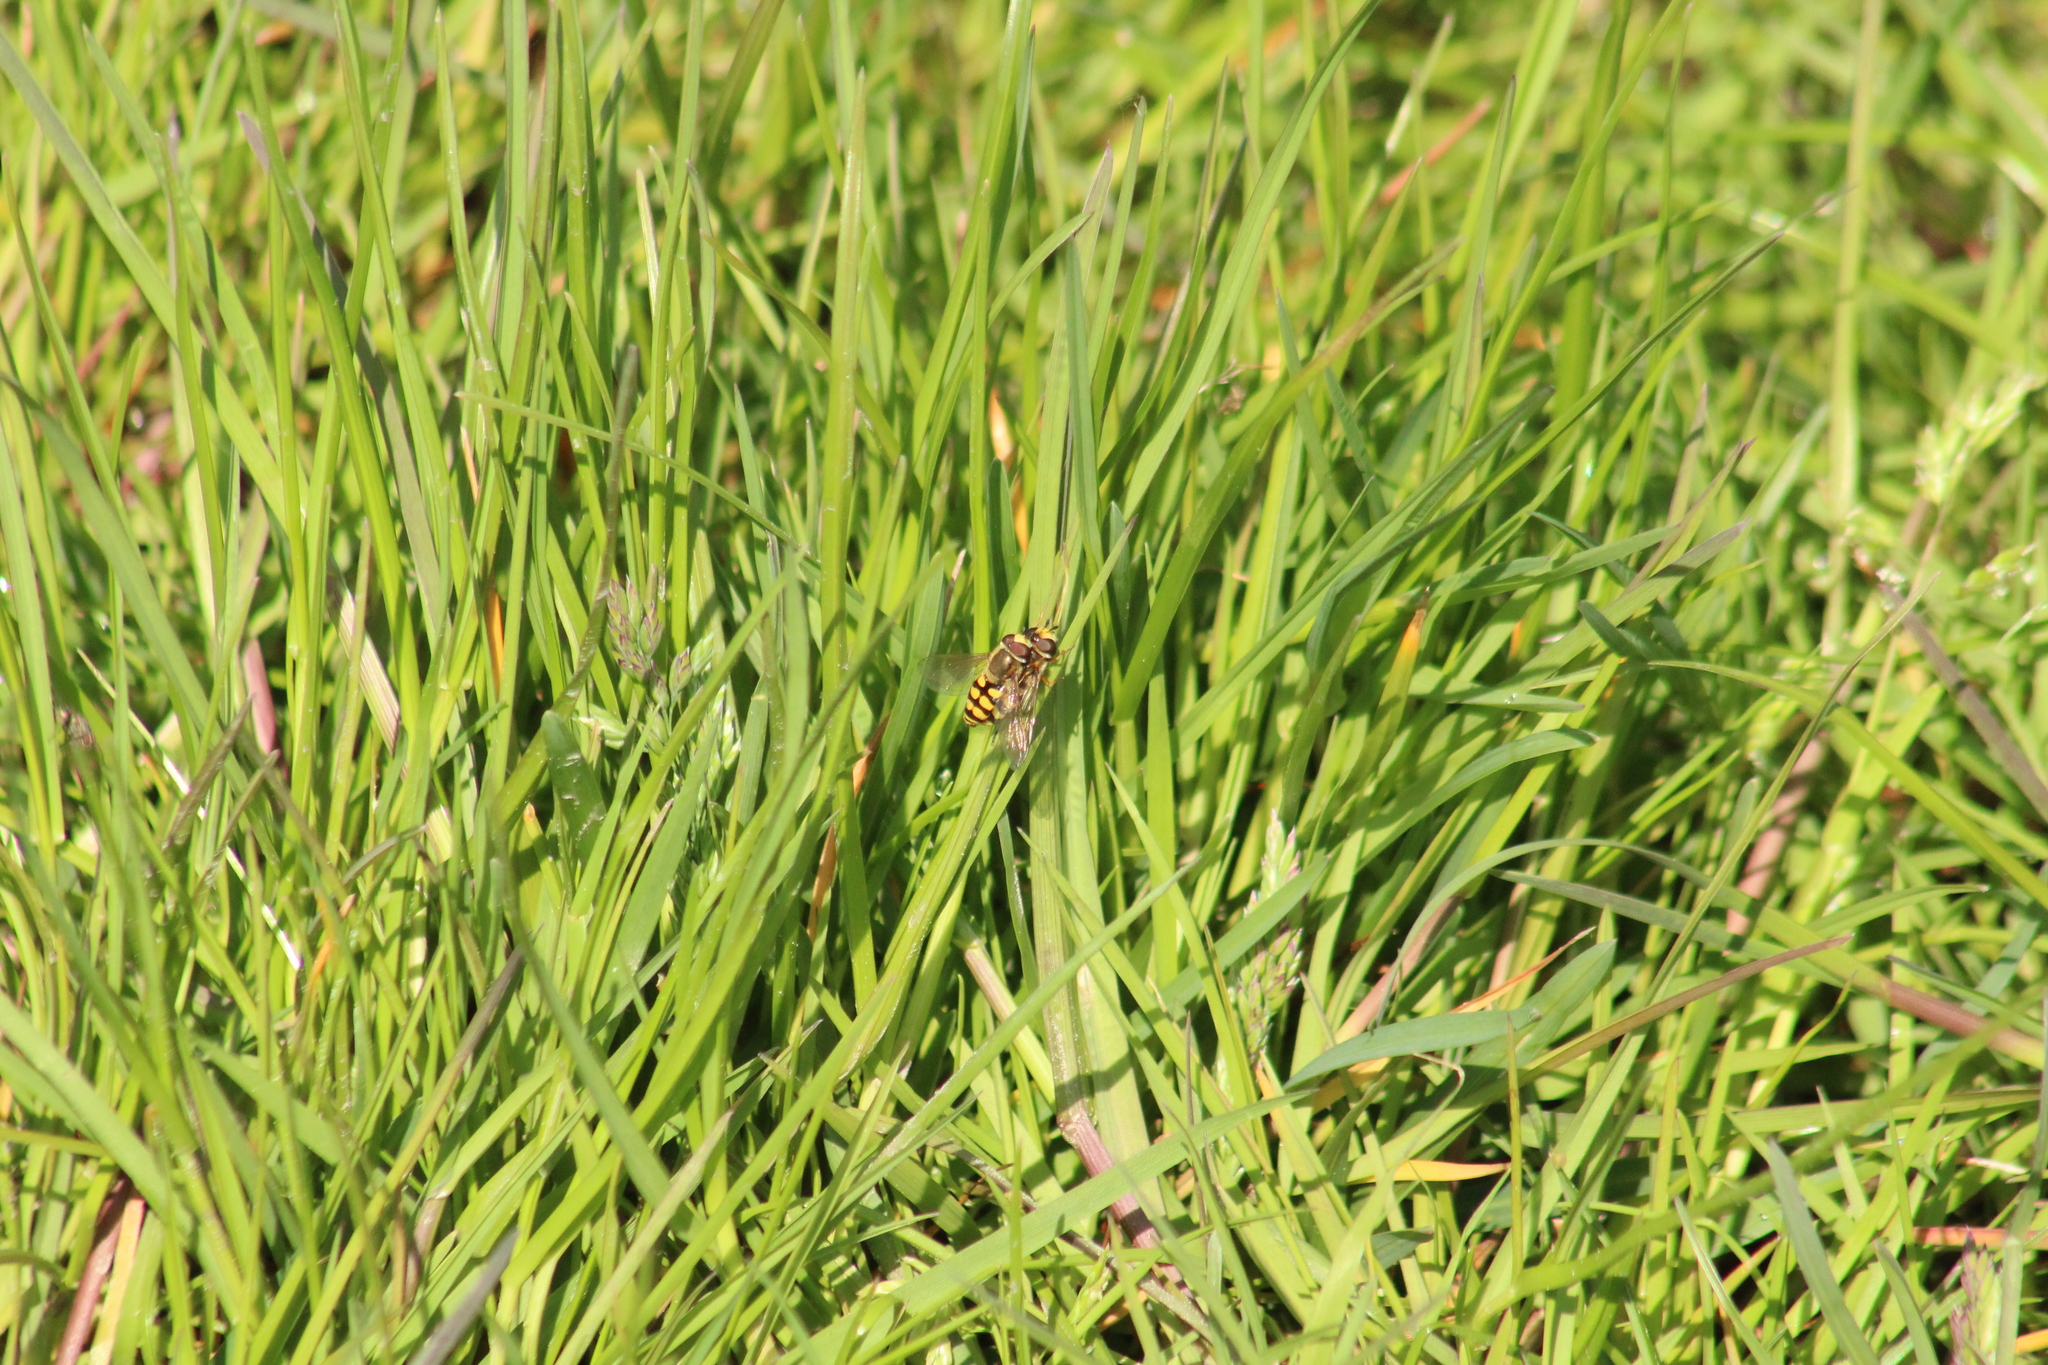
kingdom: Animalia
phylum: Arthropoda
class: Insecta
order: Diptera
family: Syrphidae
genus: Eupeodes
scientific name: Eupeodes corollae
